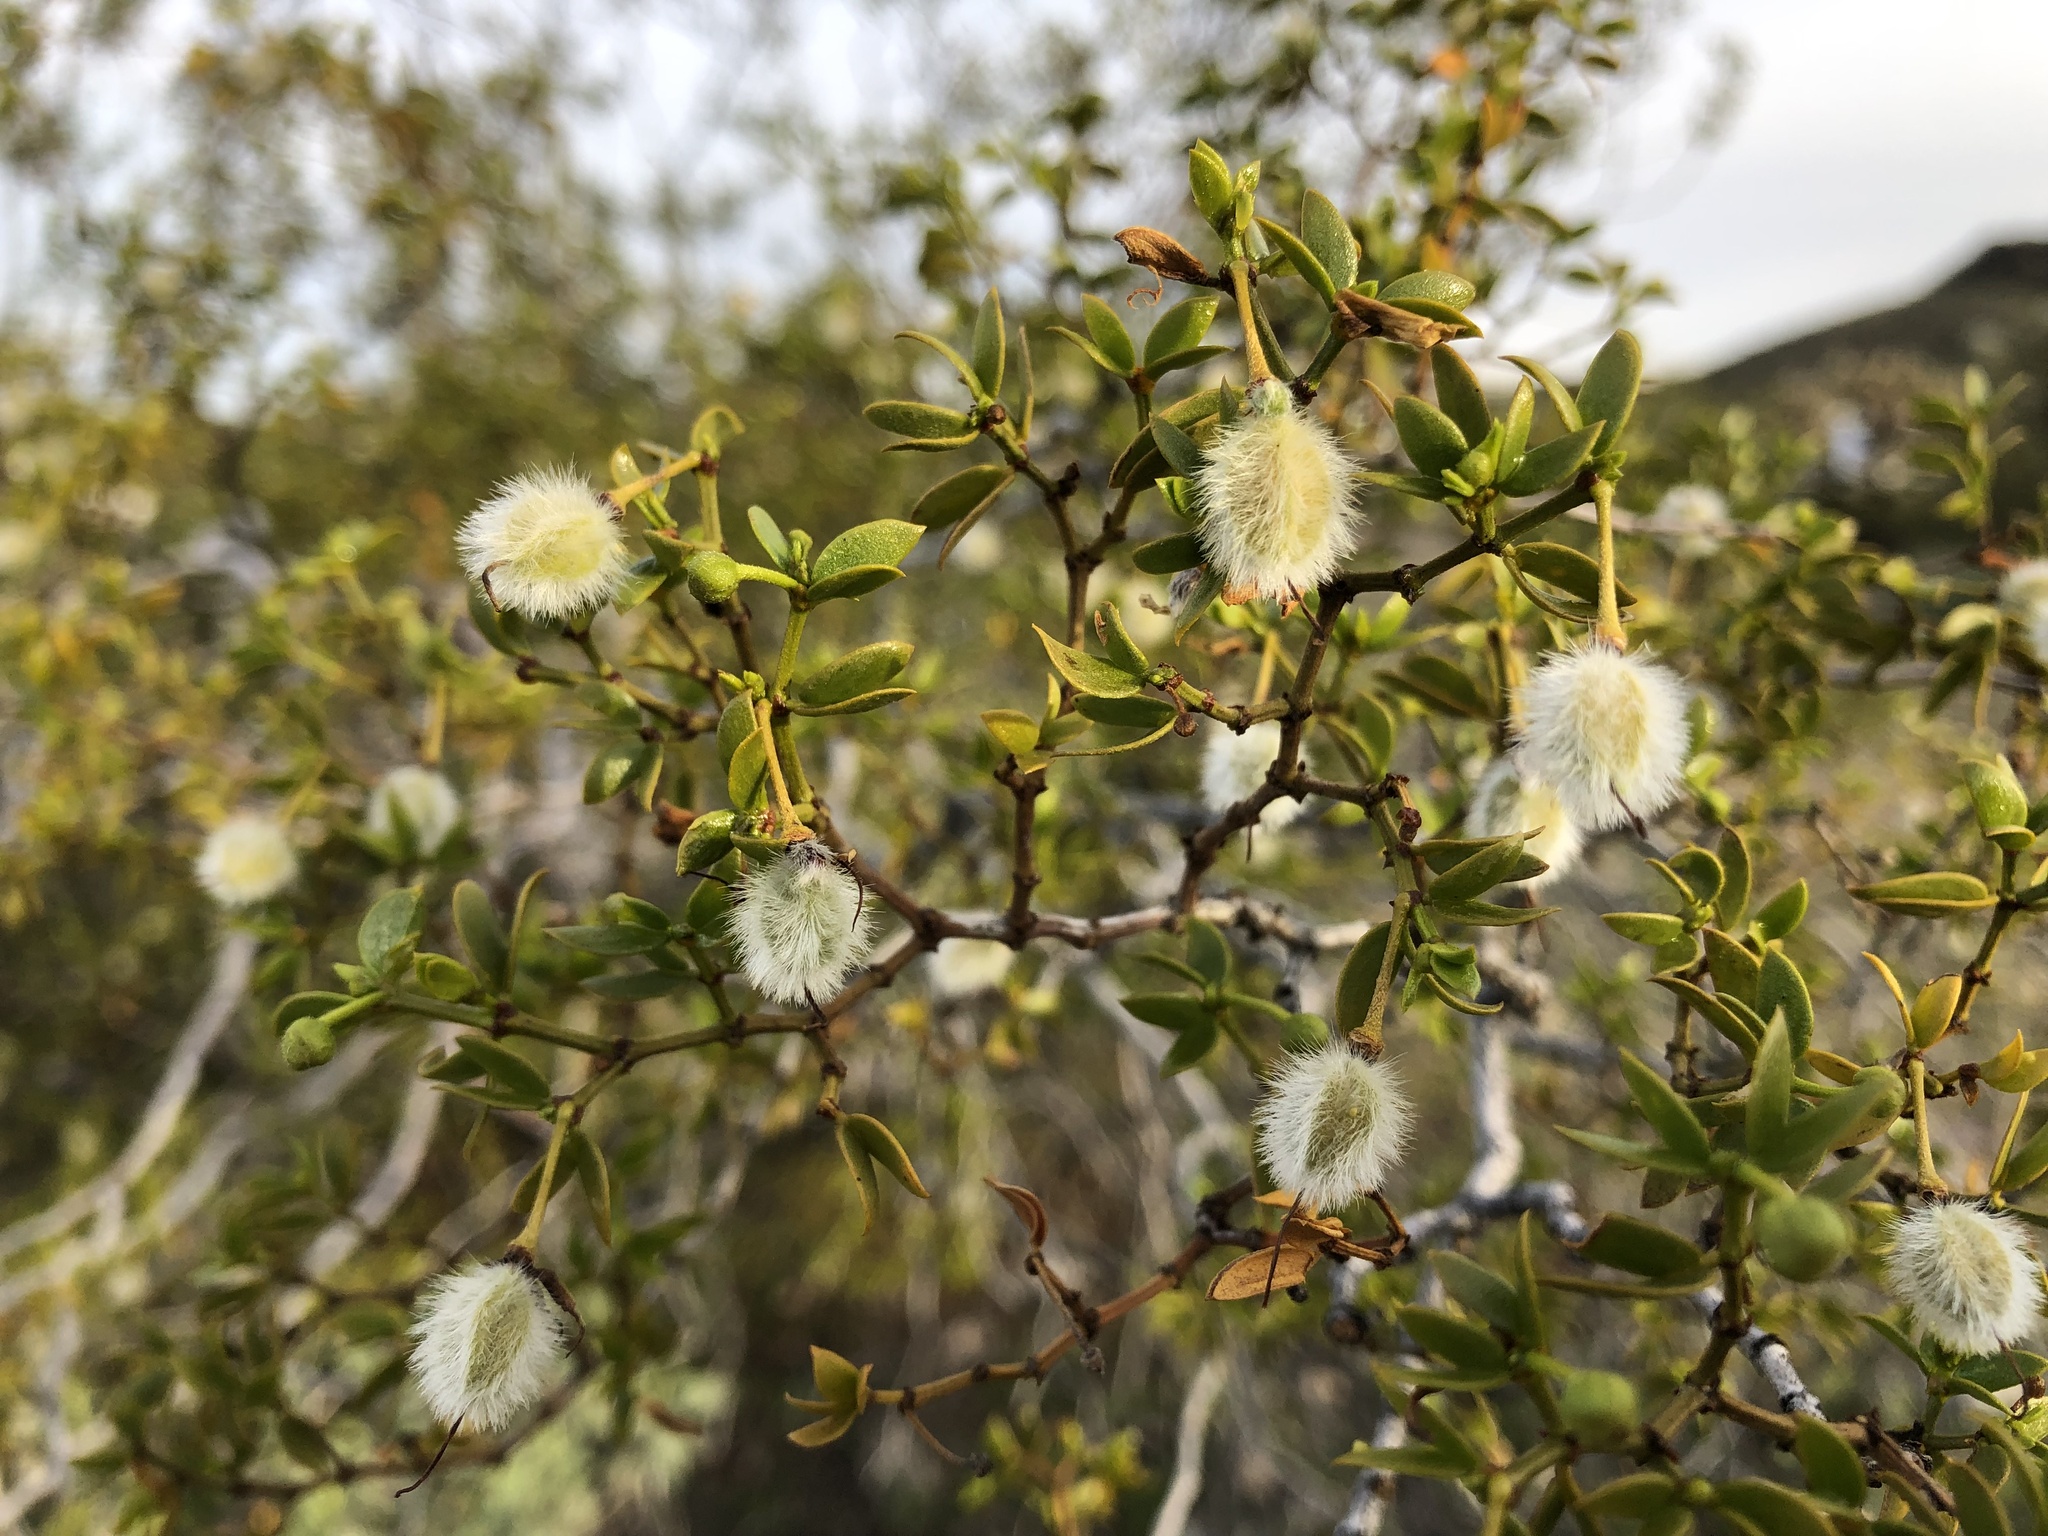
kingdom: Plantae
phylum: Tracheophyta
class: Magnoliopsida
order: Zygophyllales
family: Zygophyllaceae
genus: Larrea
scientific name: Larrea tridentata
